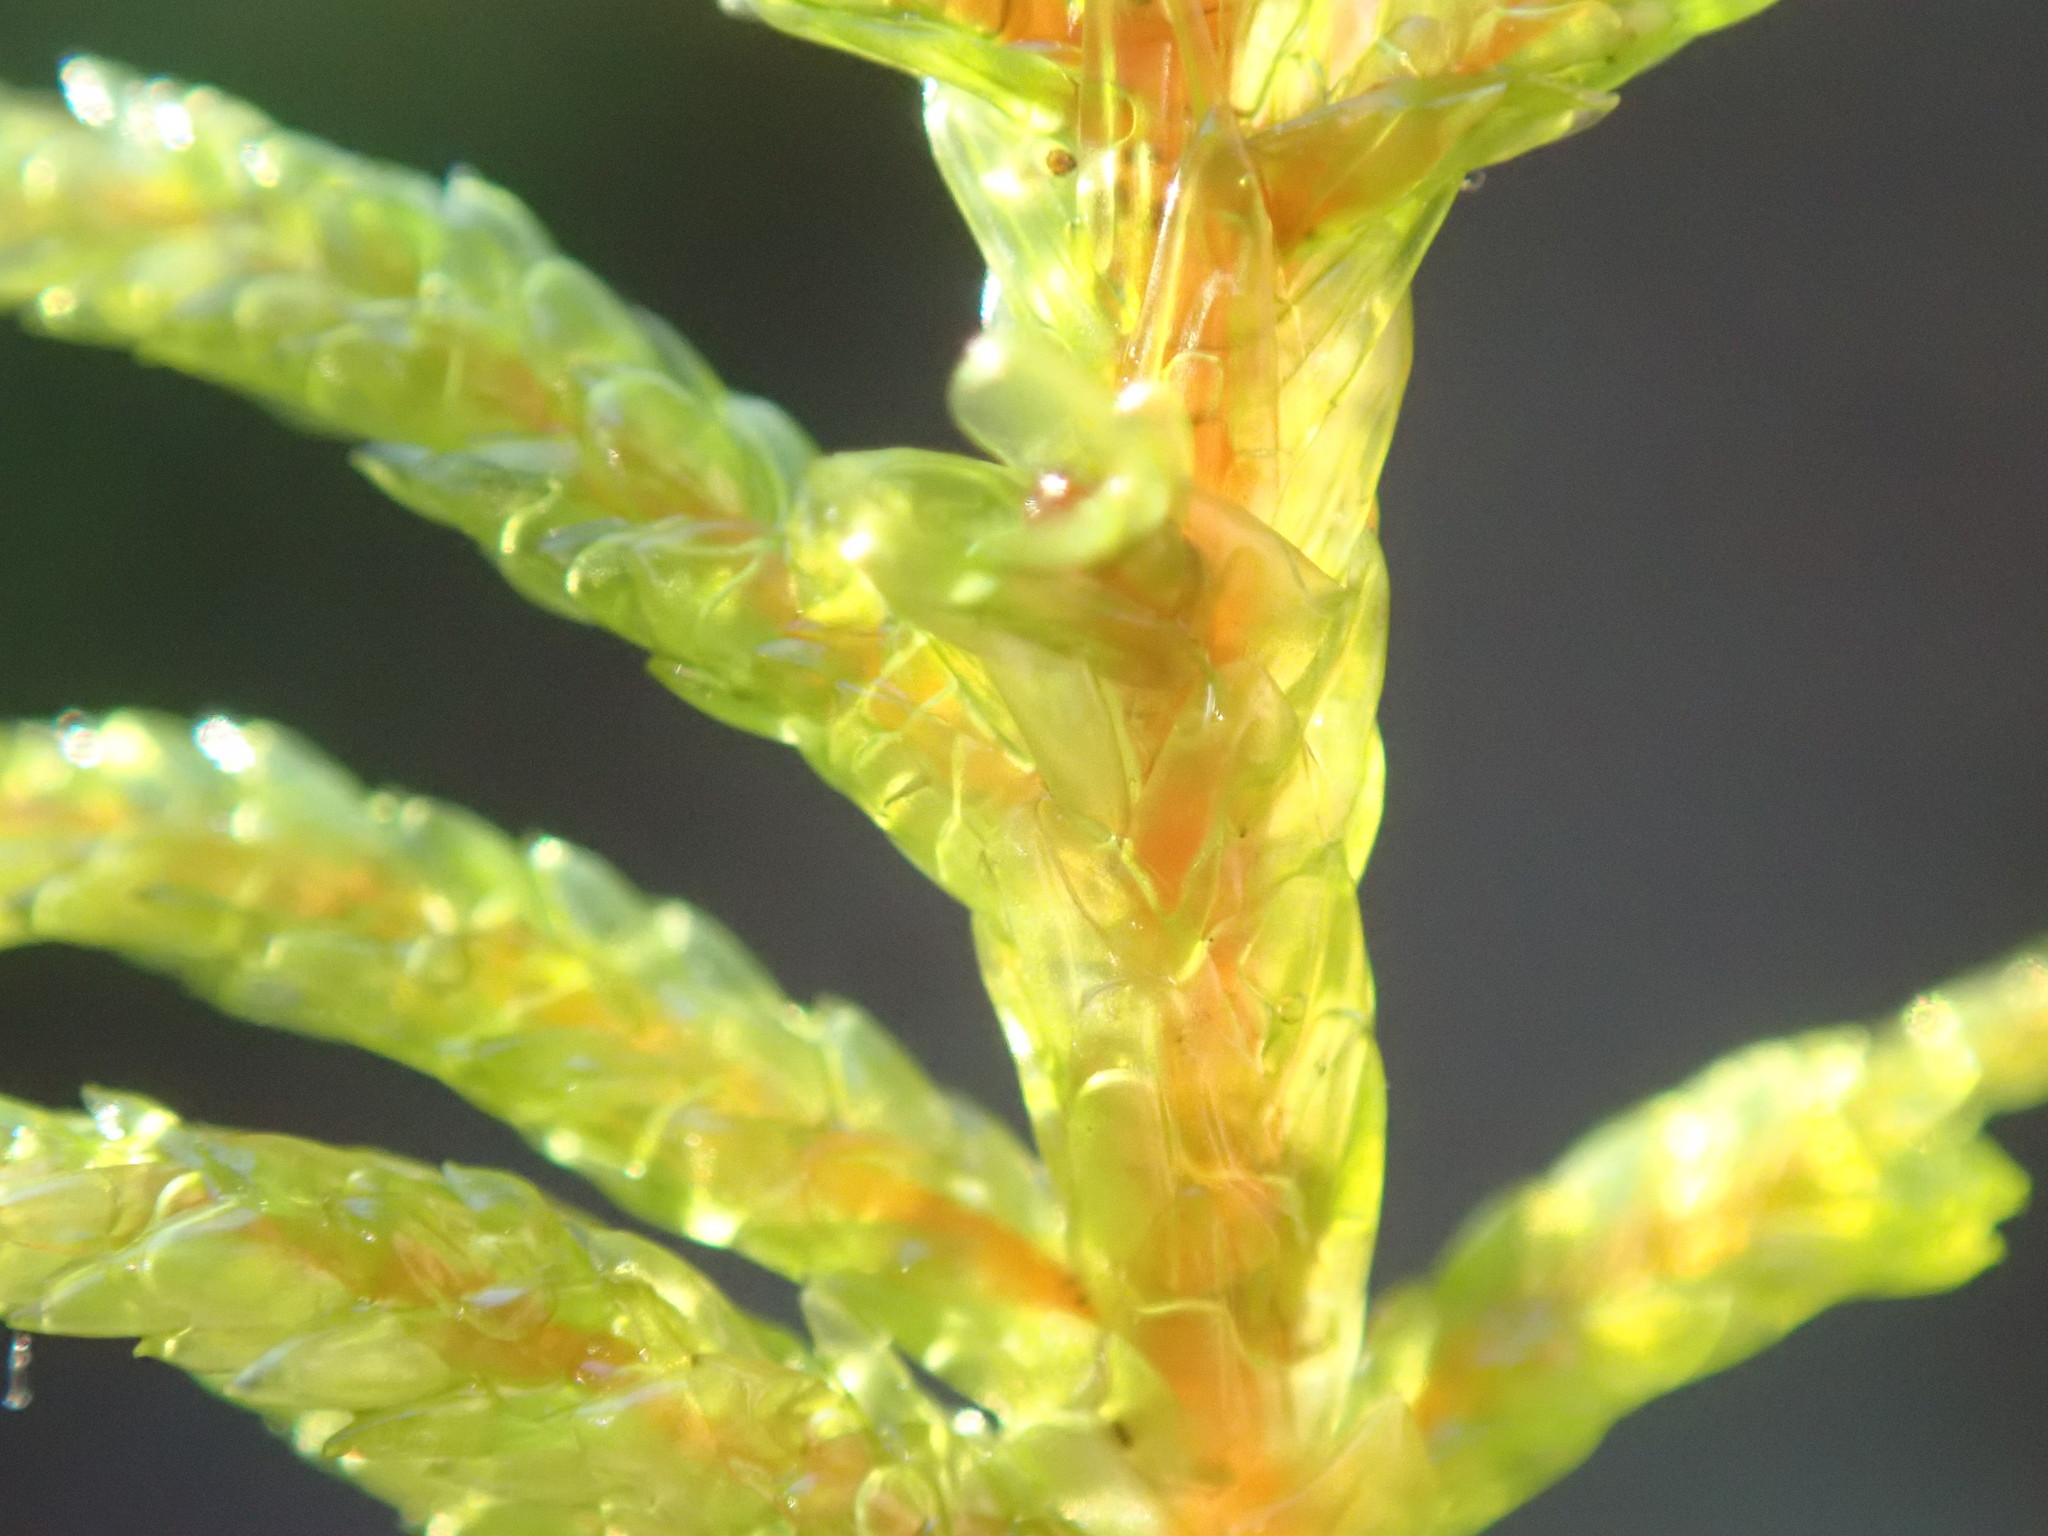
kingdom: Plantae
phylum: Bryophyta
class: Bryopsida
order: Hypnales
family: Hylocomiaceae
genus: Pleurozium
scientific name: Pleurozium schreberi
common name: Red-stemmed feather moss
